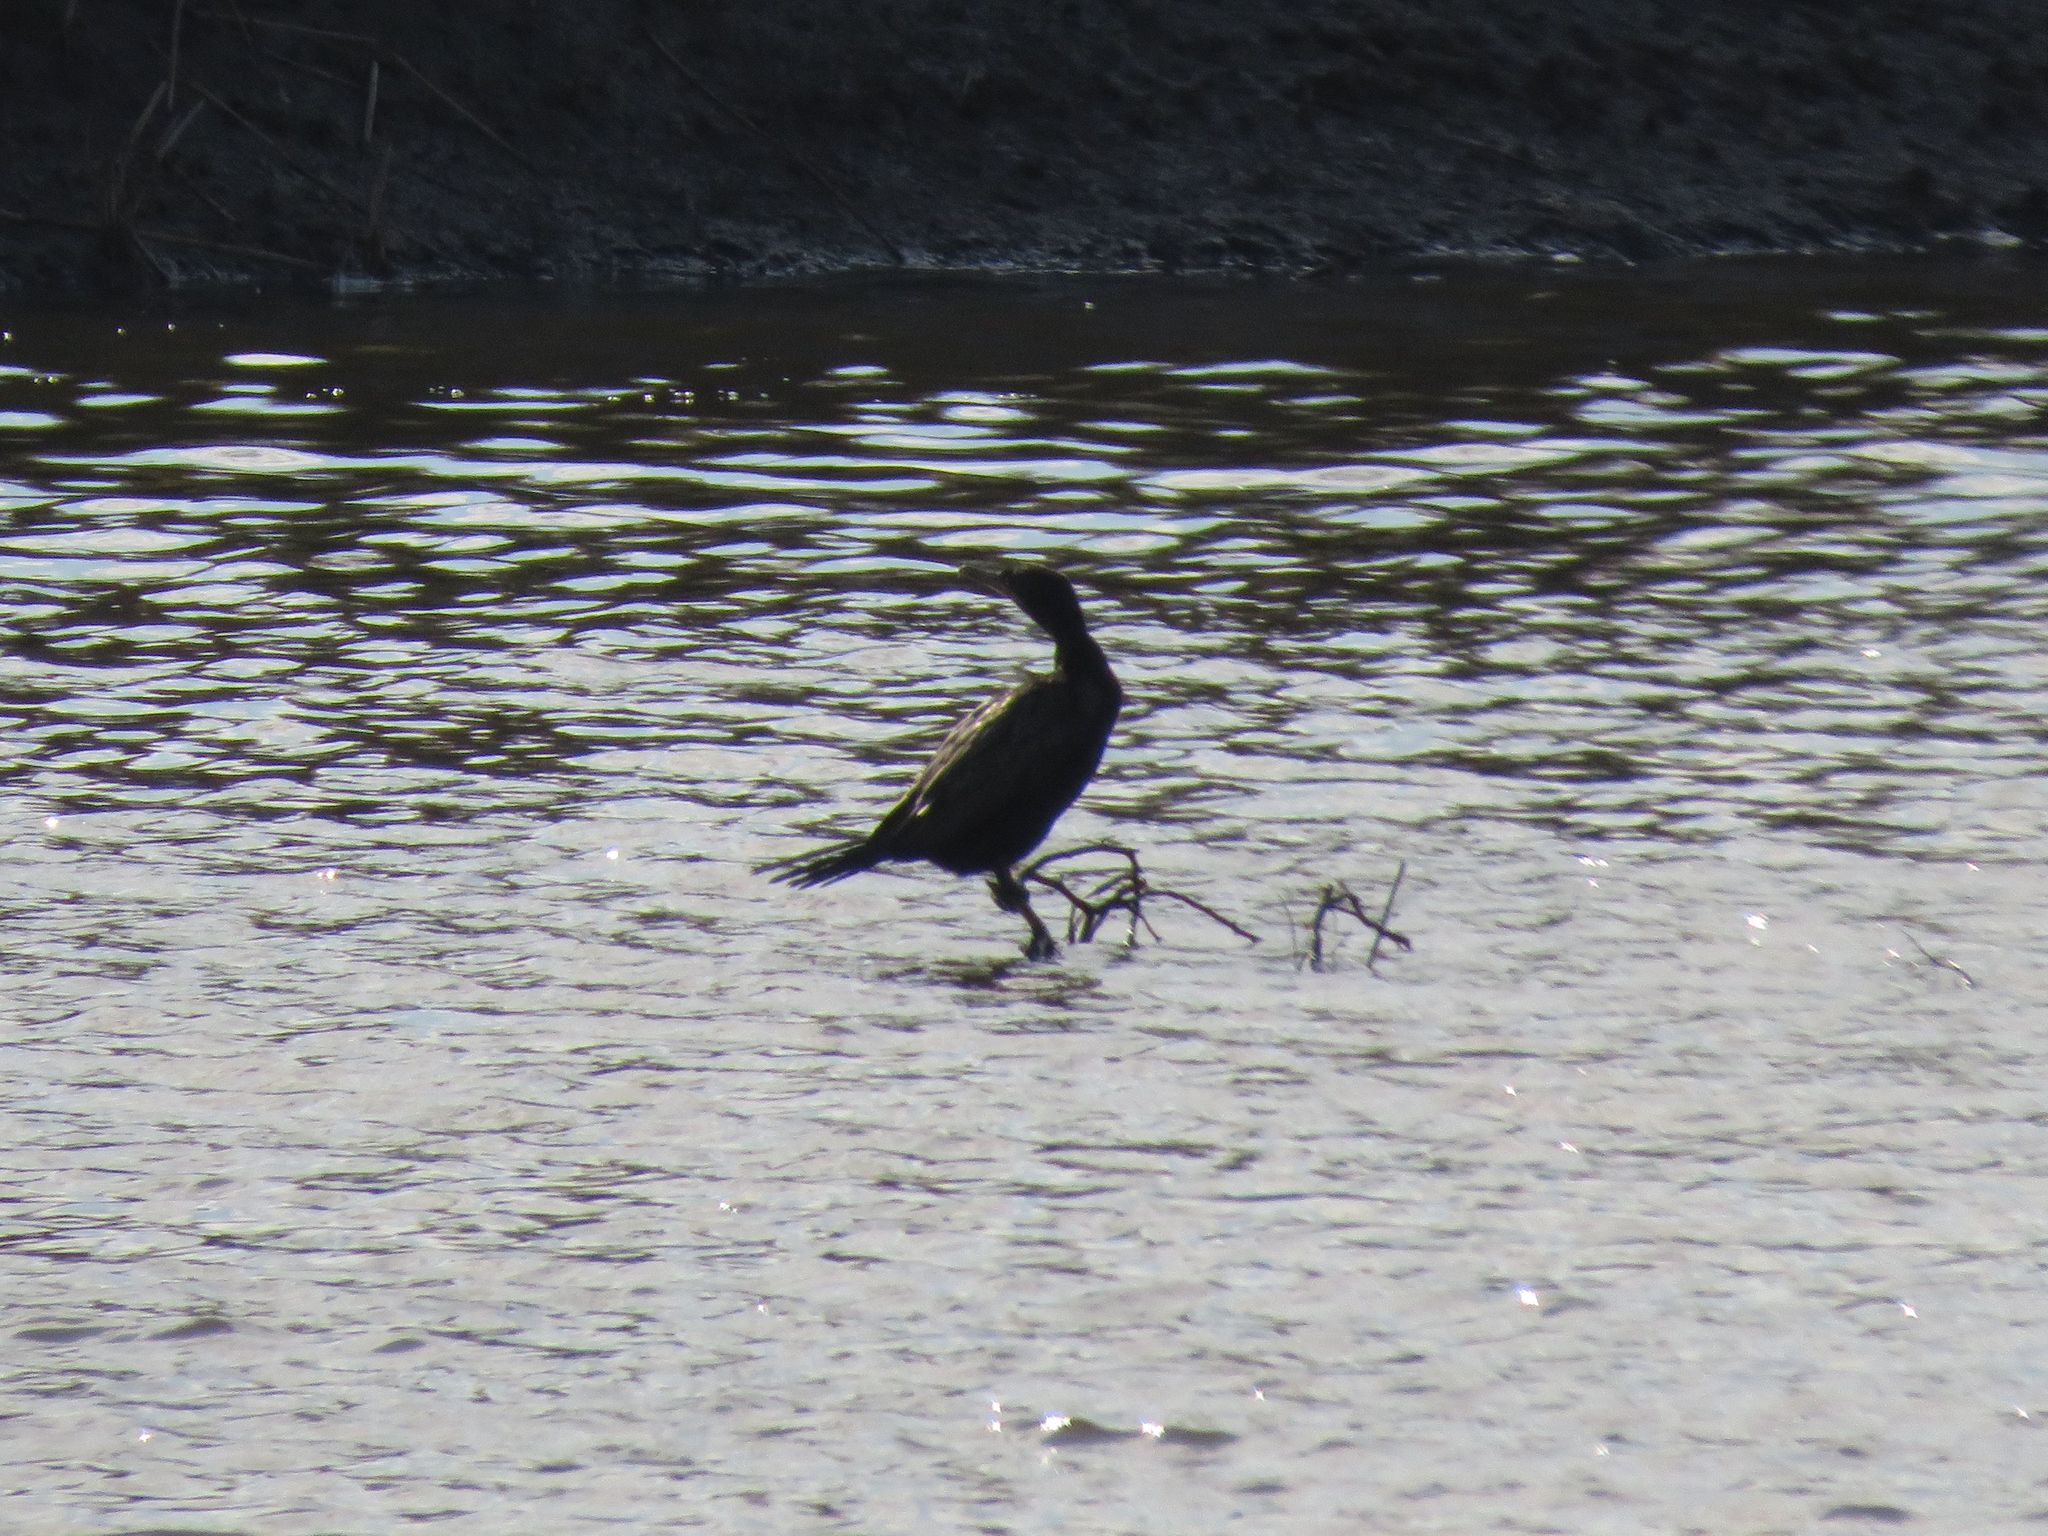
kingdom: Animalia
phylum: Chordata
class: Aves
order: Suliformes
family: Phalacrocoracidae
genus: Phalacrocorax
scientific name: Phalacrocorax brasilianus
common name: Neotropic cormorant
